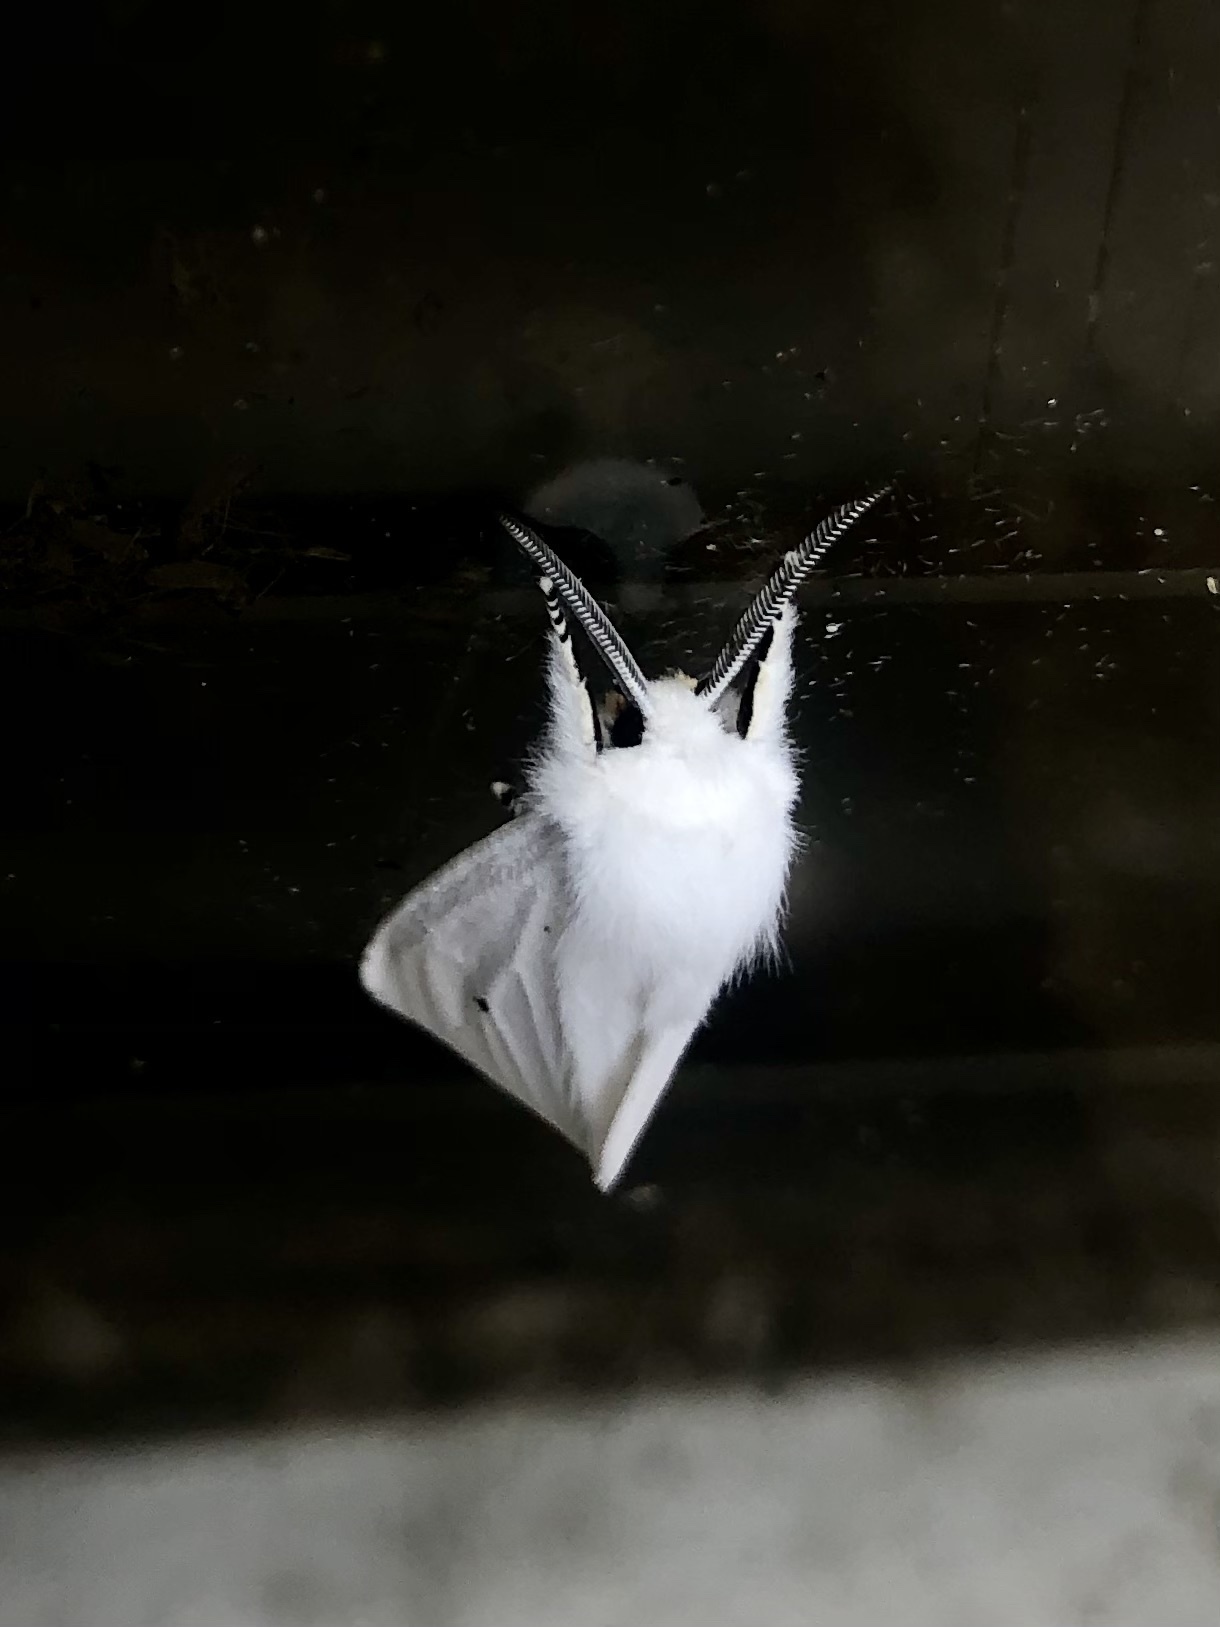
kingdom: Animalia
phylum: Arthropoda
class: Insecta
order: Lepidoptera
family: Erebidae
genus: Spilosoma
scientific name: Spilosoma virginica
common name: Virginia tiger moth
